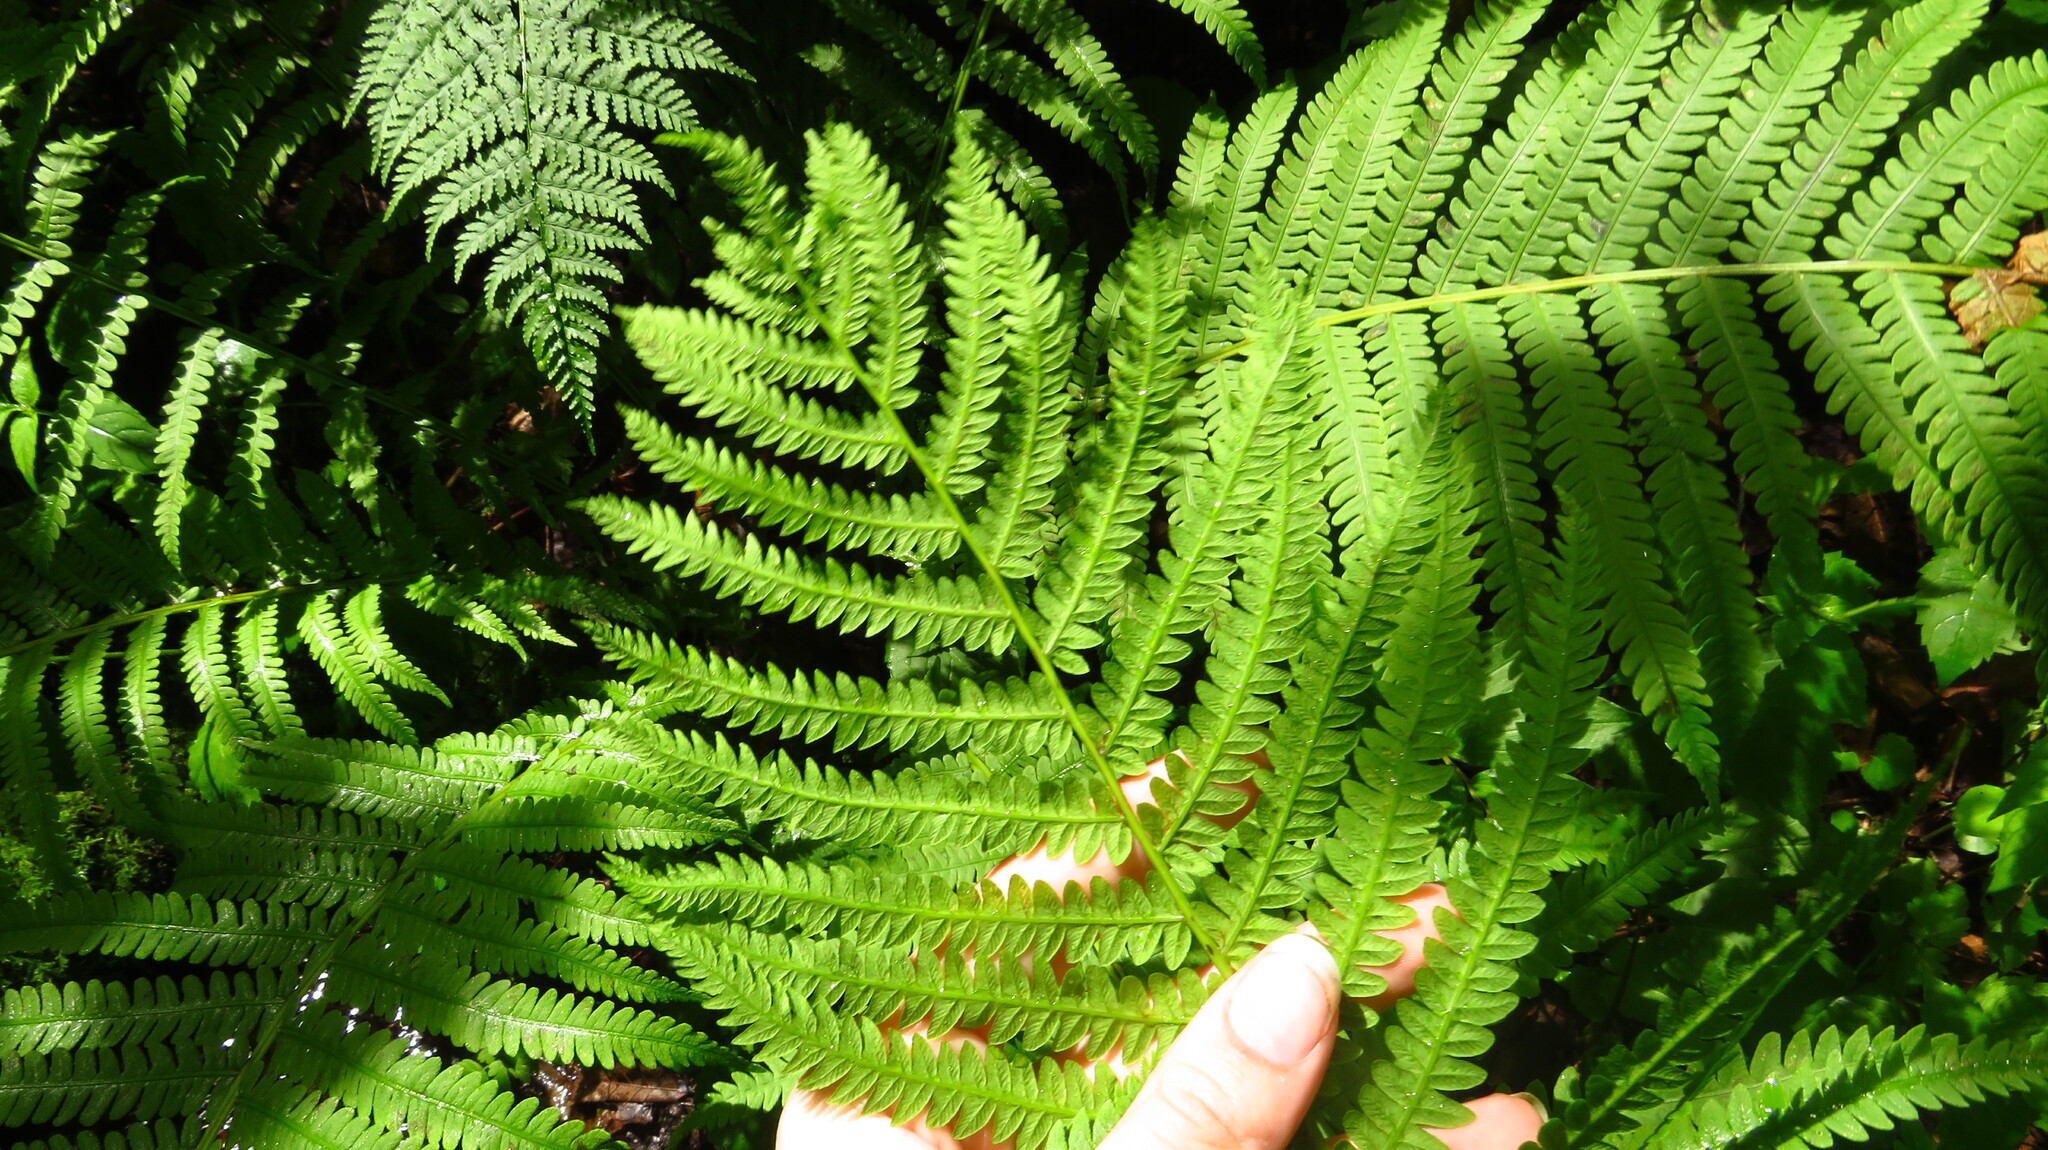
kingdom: Plantae
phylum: Tracheophyta
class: Polypodiopsida
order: Polypodiales
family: Onocleaceae
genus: Matteuccia
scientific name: Matteuccia struthiopteris
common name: Ostrich fern
